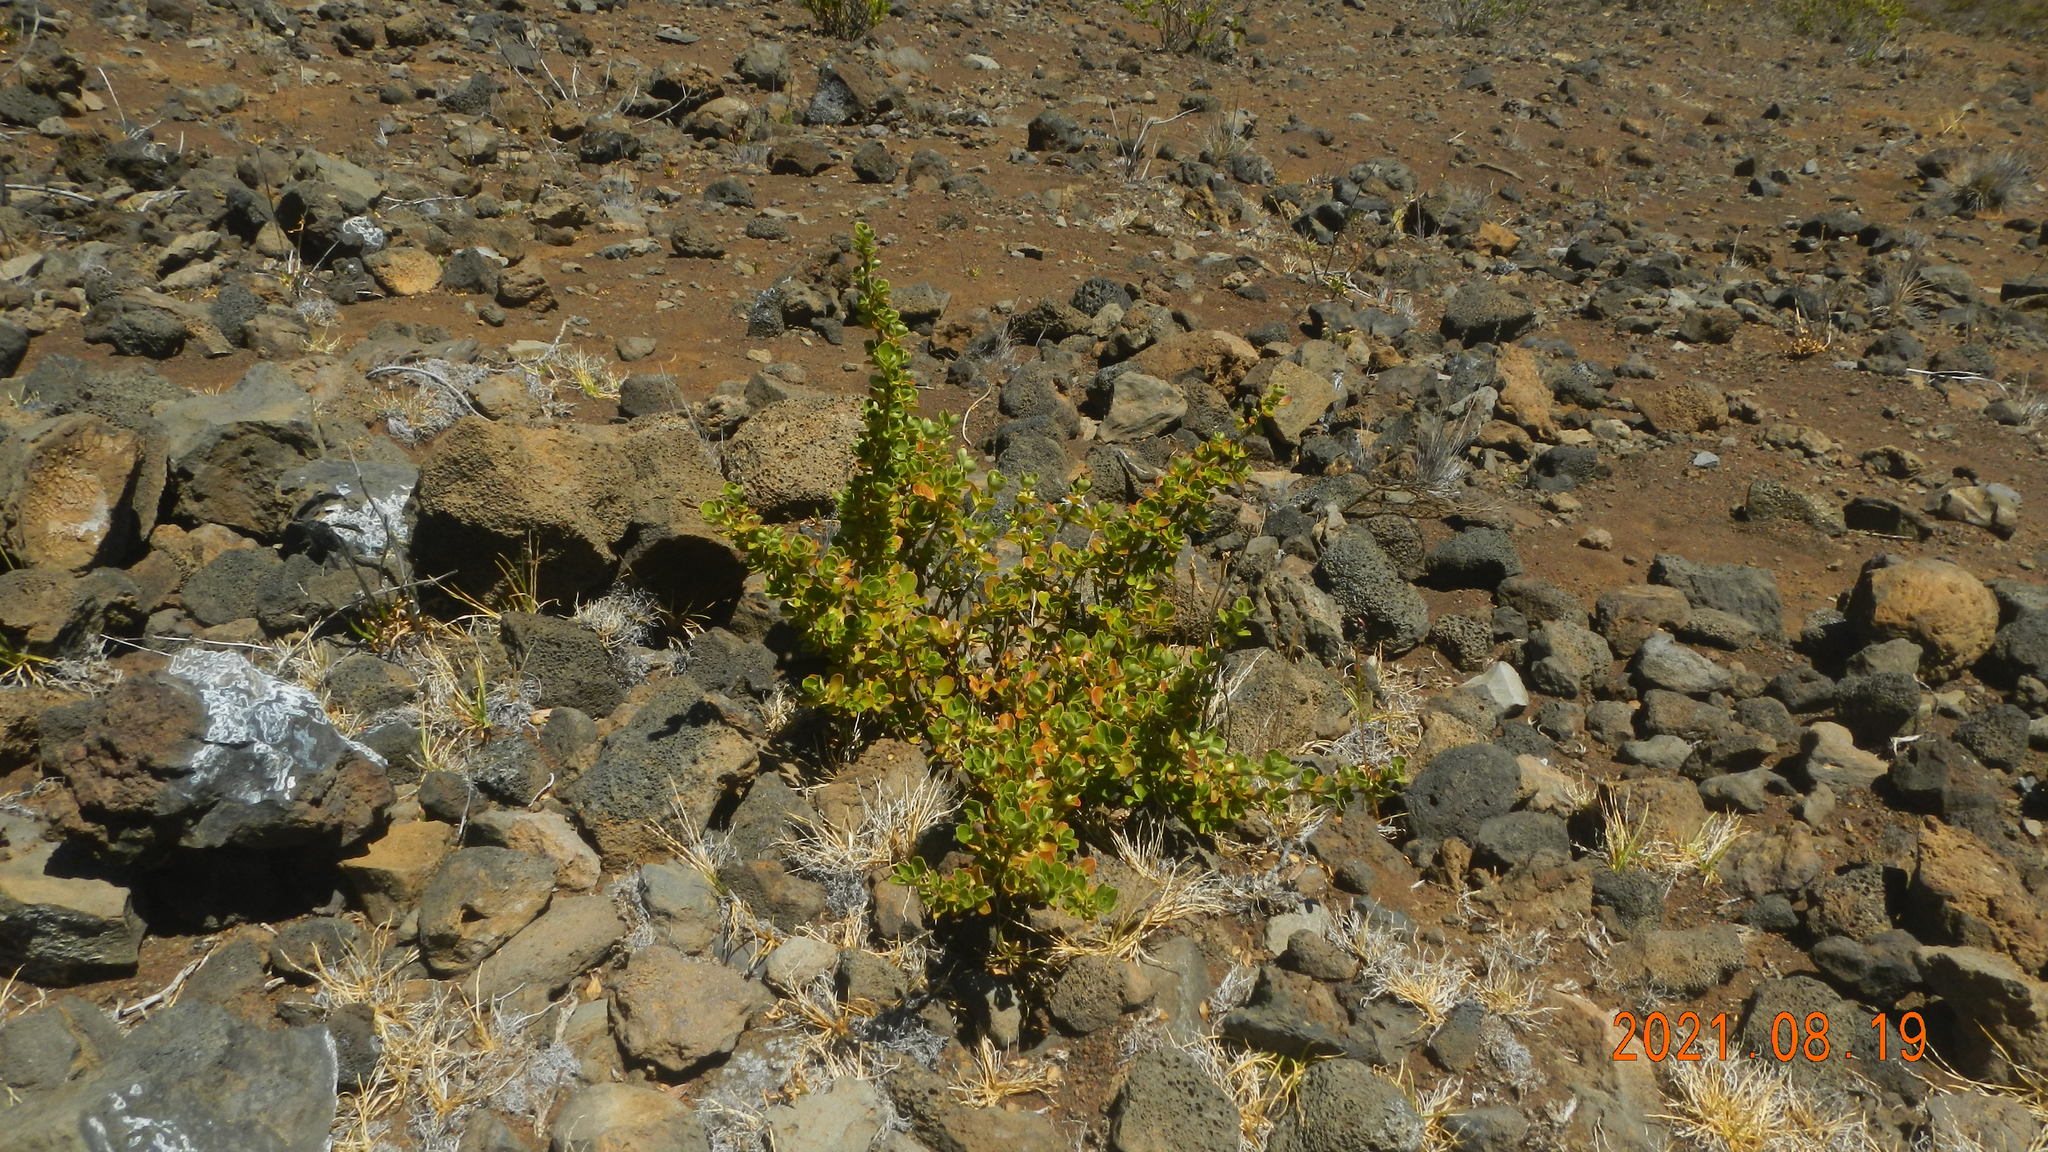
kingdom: Plantae
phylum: Tracheophyta
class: Magnoliopsida
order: Gentianales
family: Rubiaceae
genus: Coprosma
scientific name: Coprosma montana
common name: Alpine mirror plant
